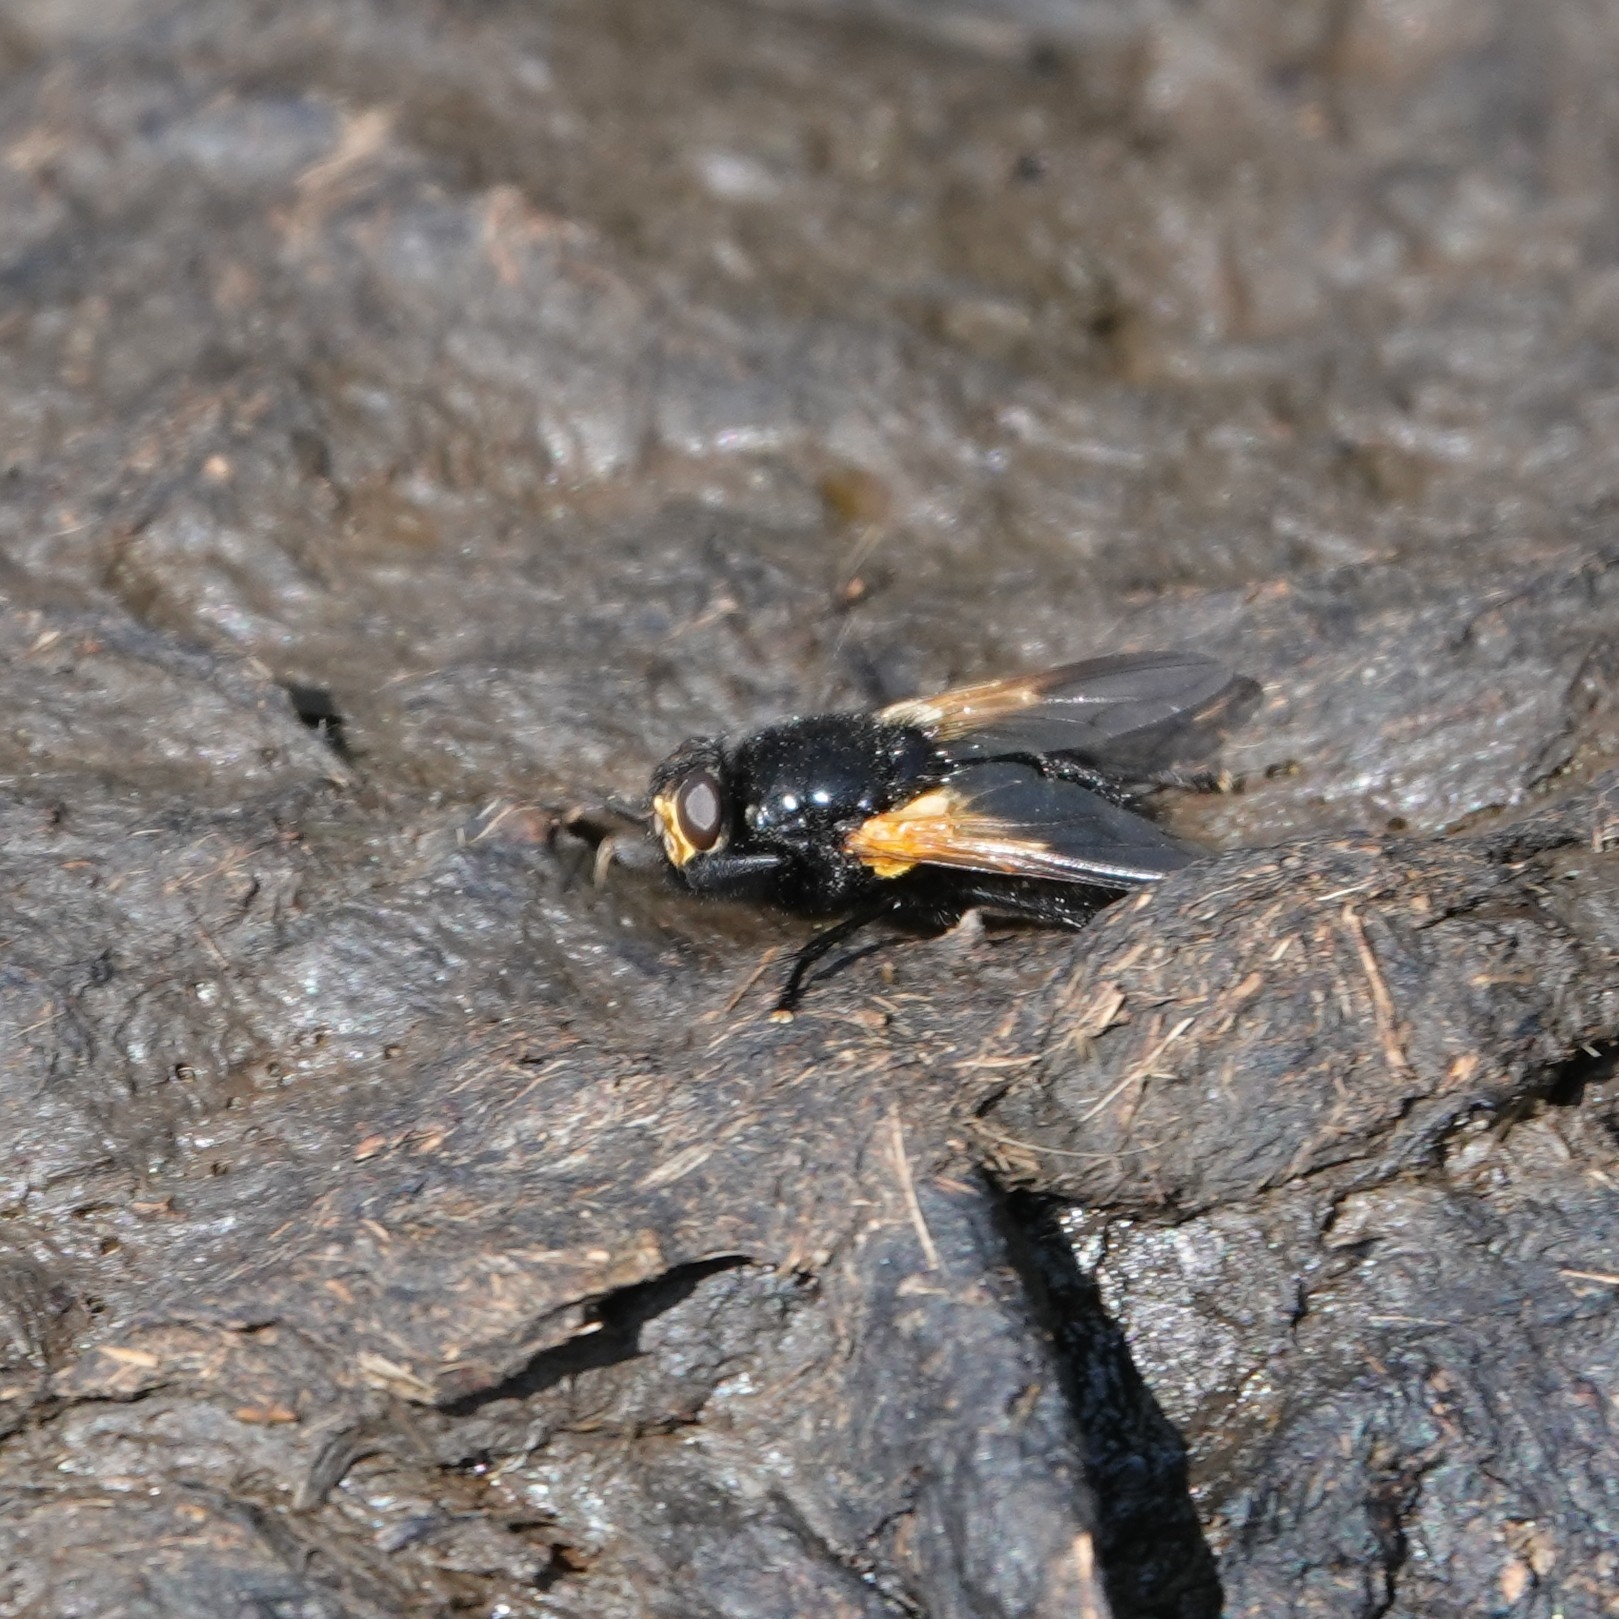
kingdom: Animalia
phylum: Arthropoda
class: Insecta
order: Diptera
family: Muscidae
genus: Mesembrina
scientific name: Mesembrina meridiana
